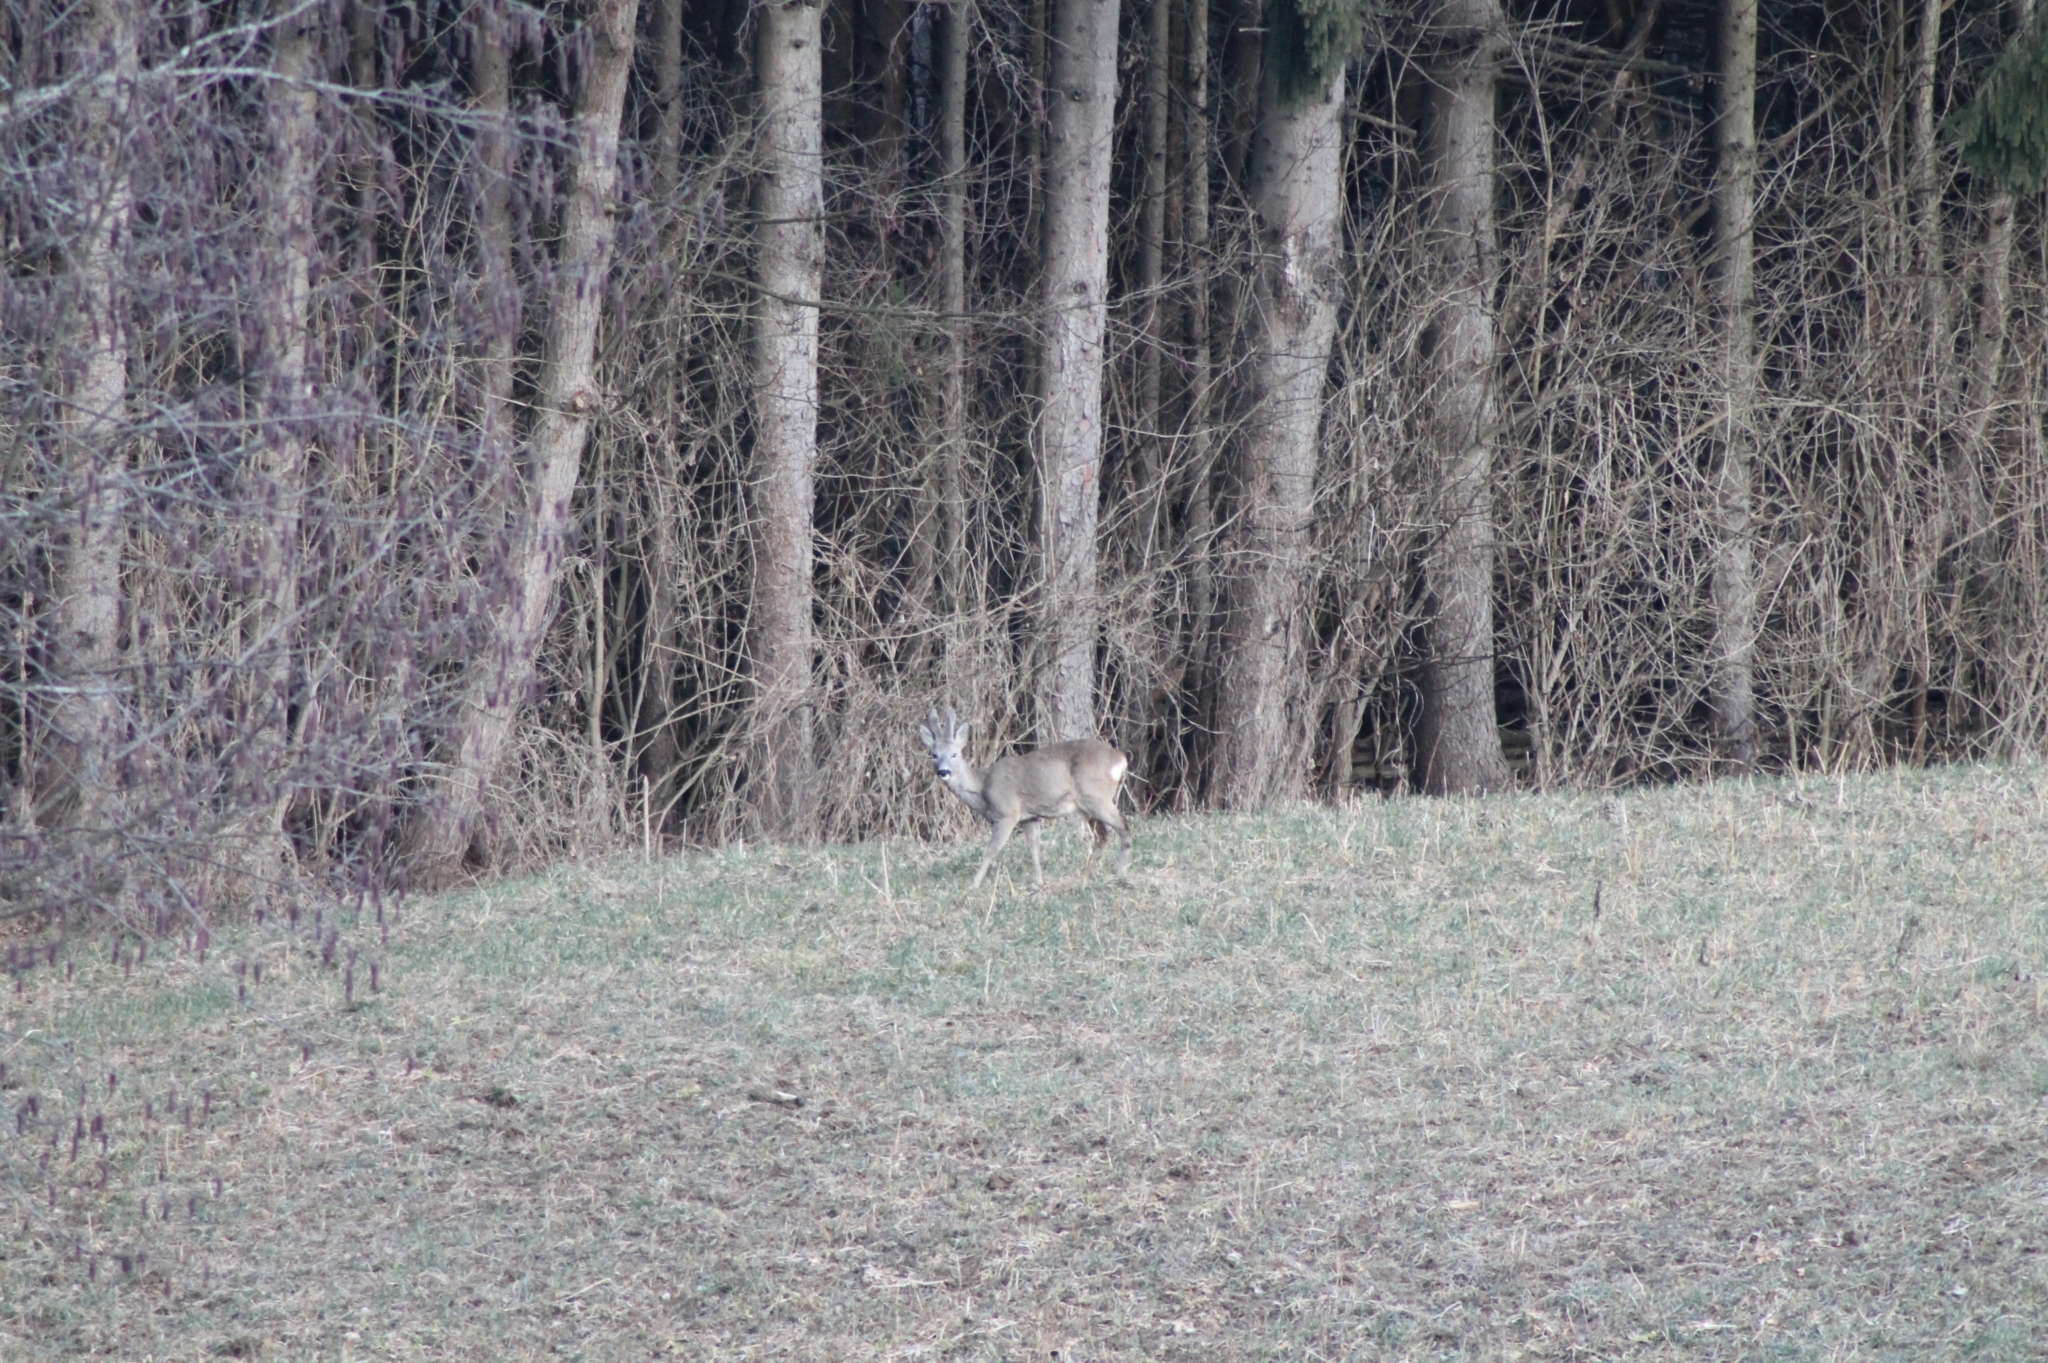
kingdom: Animalia
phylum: Chordata
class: Mammalia
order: Artiodactyla
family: Cervidae
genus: Capreolus
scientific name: Capreolus capreolus
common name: Western roe deer
